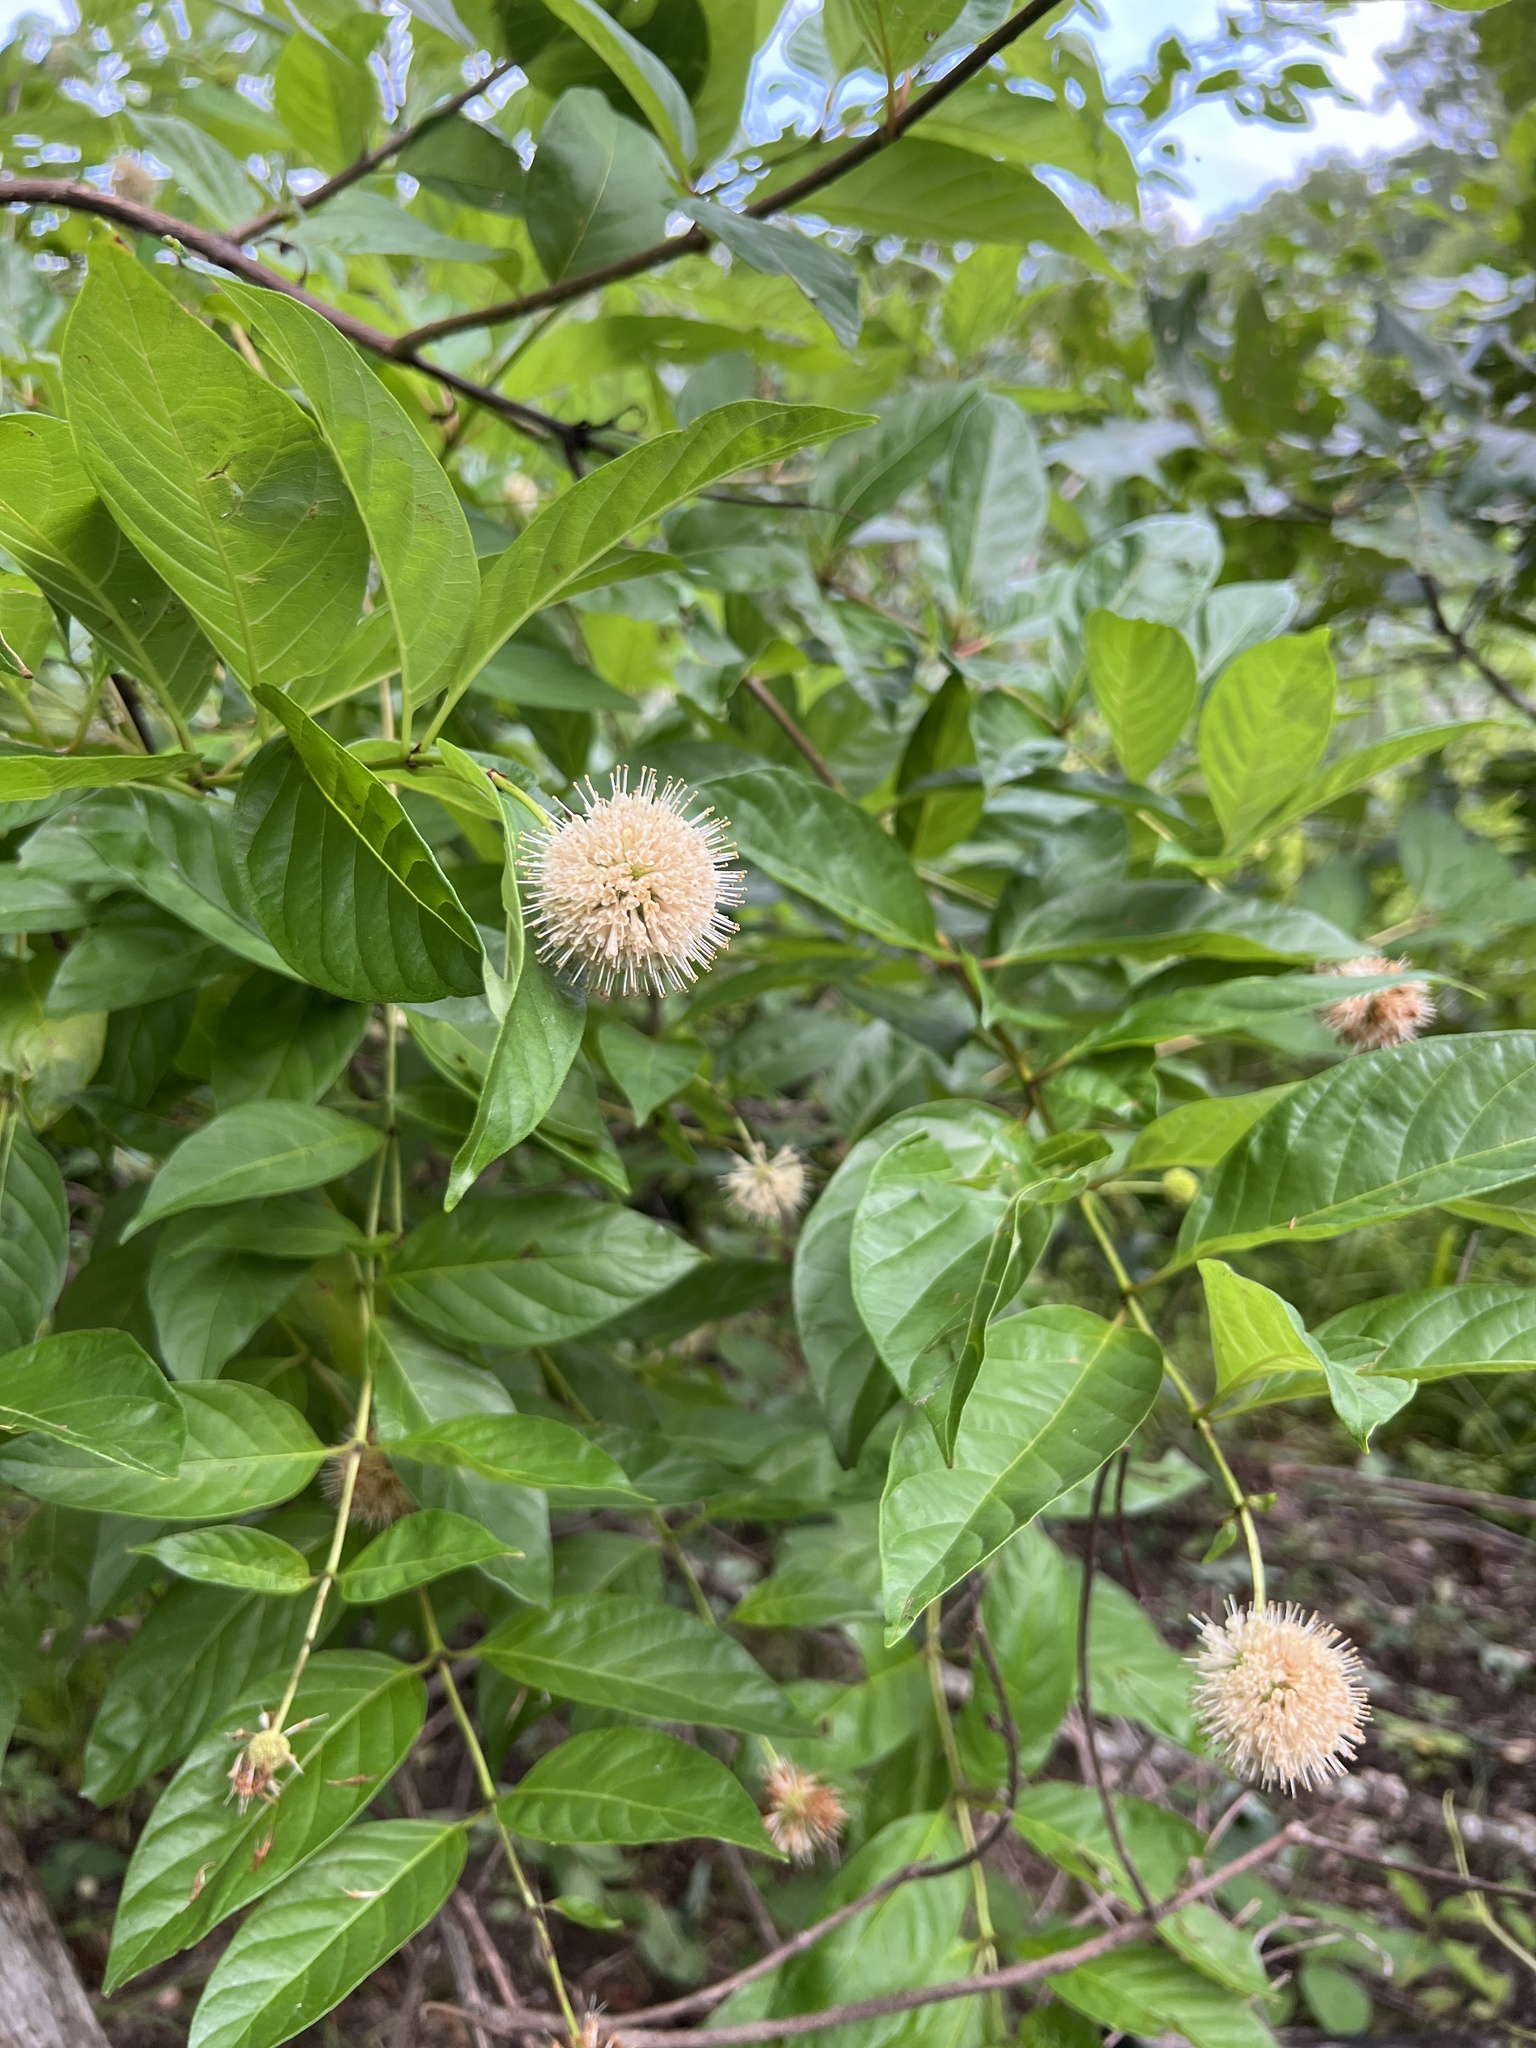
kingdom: Plantae
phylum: Tracheophyta
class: Magnoliopsida
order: Gentianales
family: Rubiaceae
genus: Cephalanthus
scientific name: Cephalanthus occidentalis
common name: Button-willow
